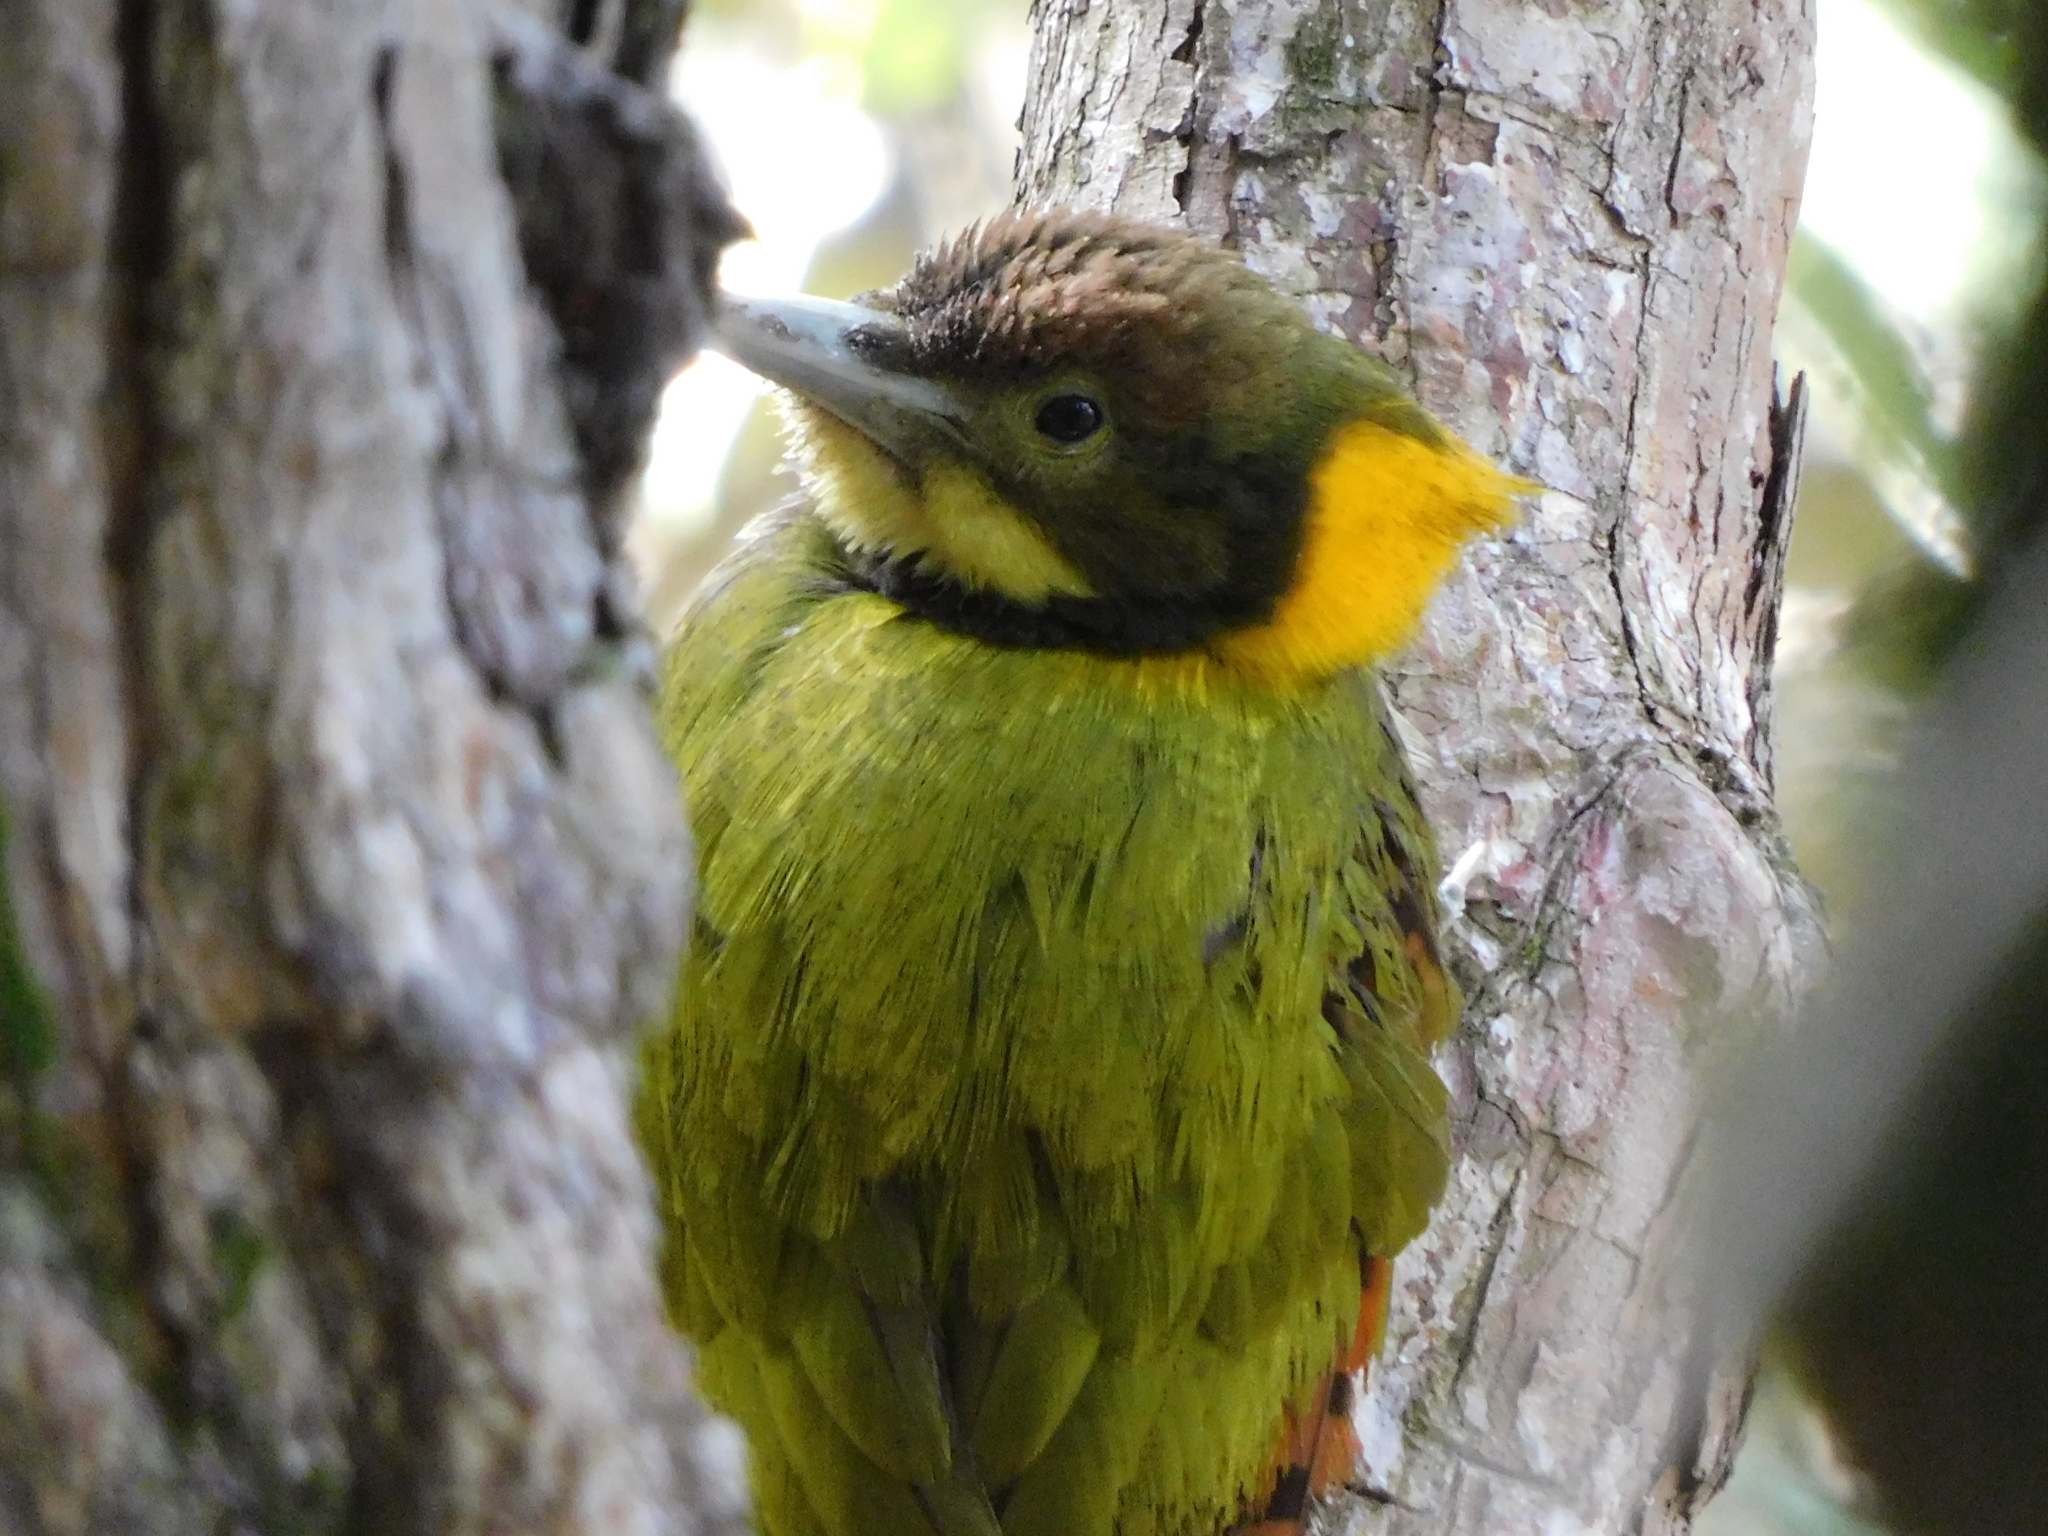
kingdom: Animalia
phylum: Chordata
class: Aves
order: Piciformes
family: Picidae
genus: Chrysophlegma
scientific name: Chrysophlegma flavinucha
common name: Greater yellownape
